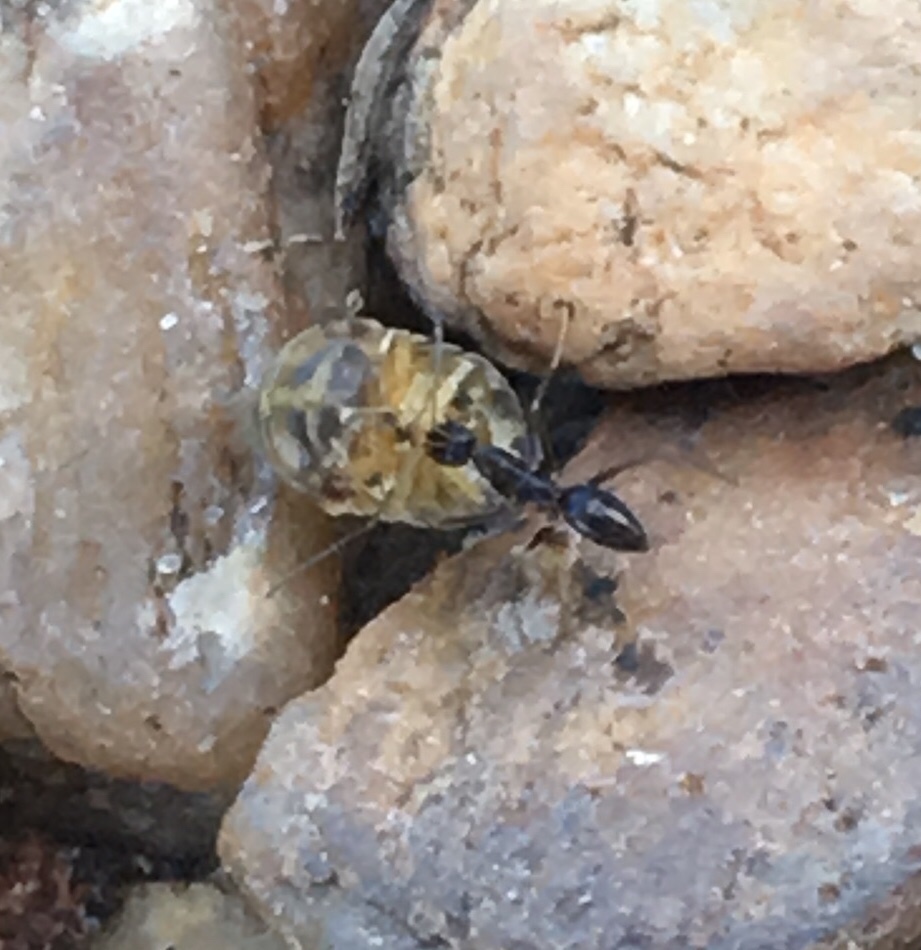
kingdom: Animalia
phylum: Arthropoda
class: Insecta
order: Hymenoptera
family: Formicidae
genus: Paratrechina
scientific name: Paratrechina longicornis
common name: Longhorned crazy ant
